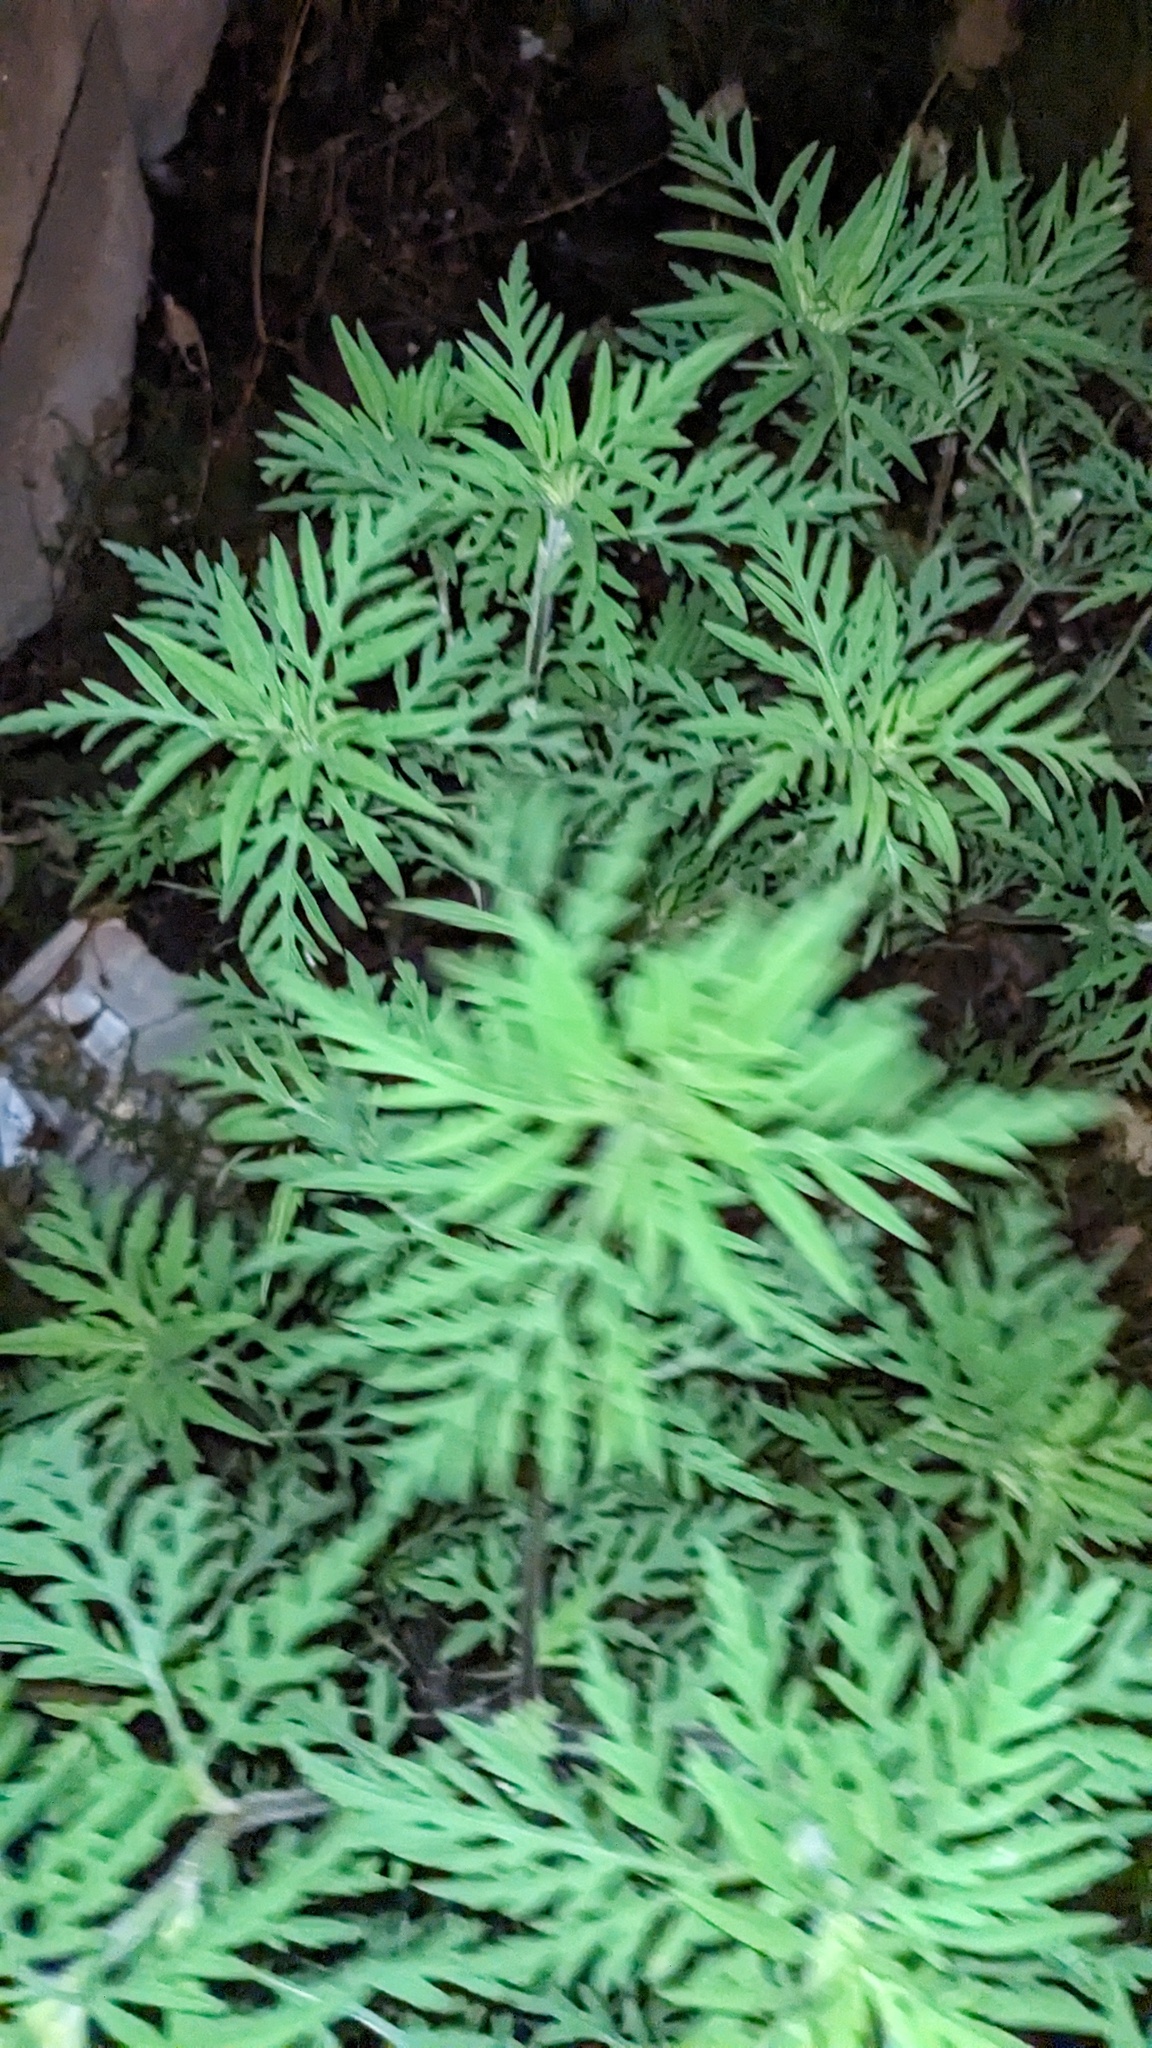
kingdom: Plantae
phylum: Tracheophyta
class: Magnoliopsida
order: Asterales
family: Asteraceae
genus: Ambrosia
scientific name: Ambrosia artemisiifolia
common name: Annual ragweed
